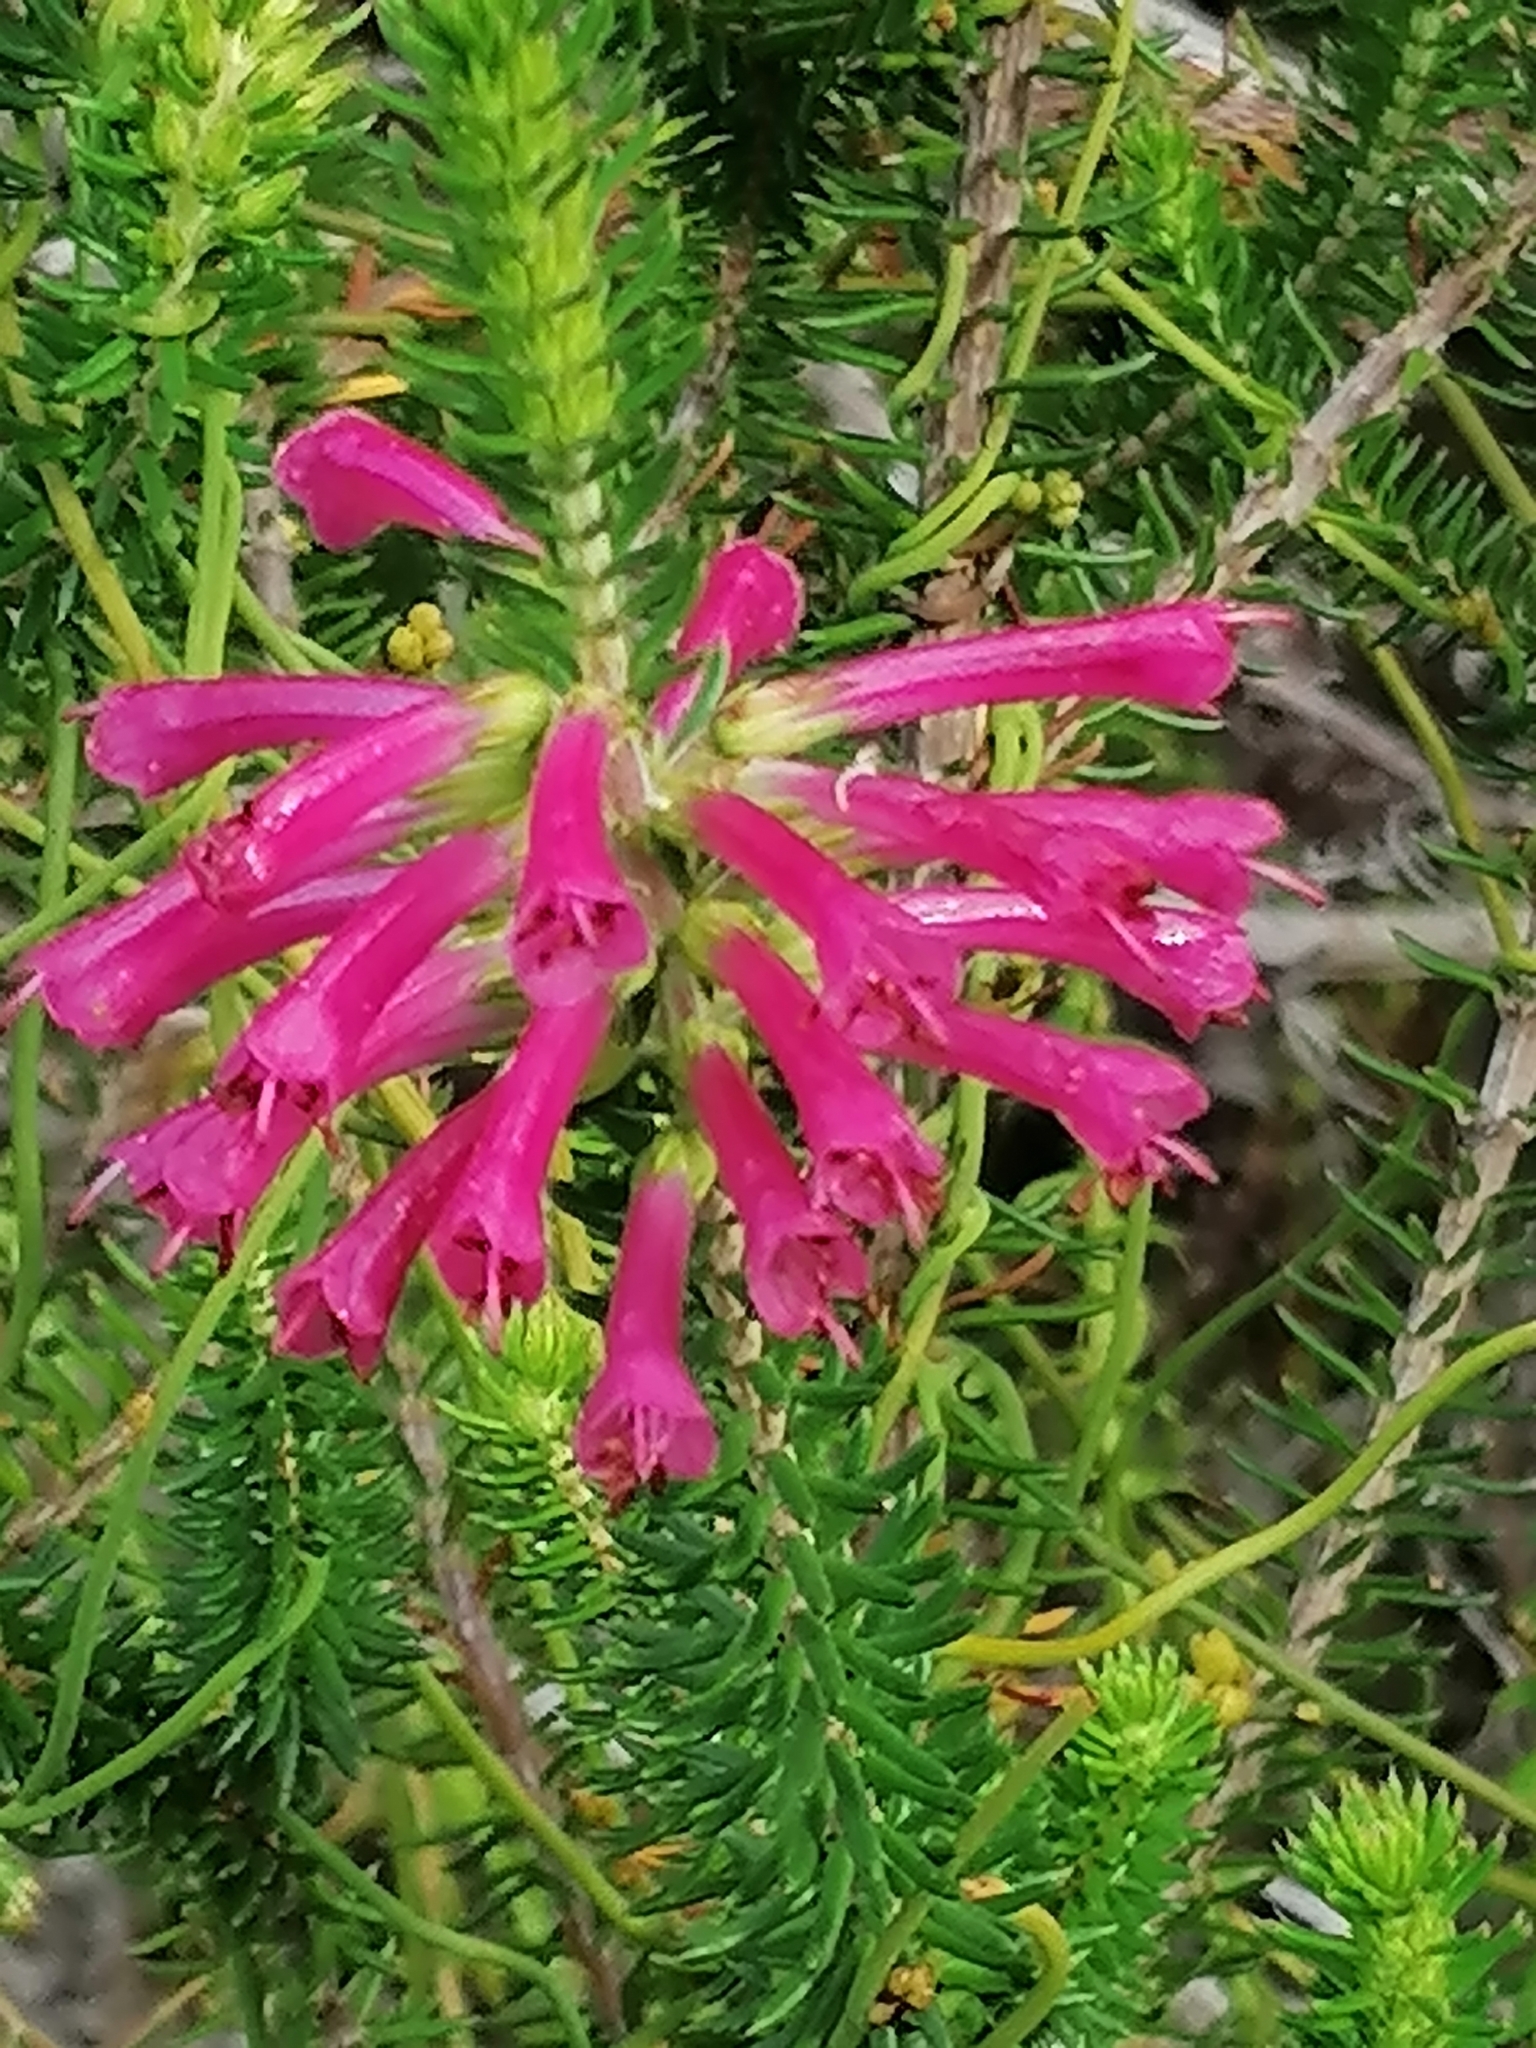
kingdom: Plantae
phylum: Tracheophyta
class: Magnoliopsida
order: Ericales
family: Ericaceae
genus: Erica
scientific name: Erica abietina
